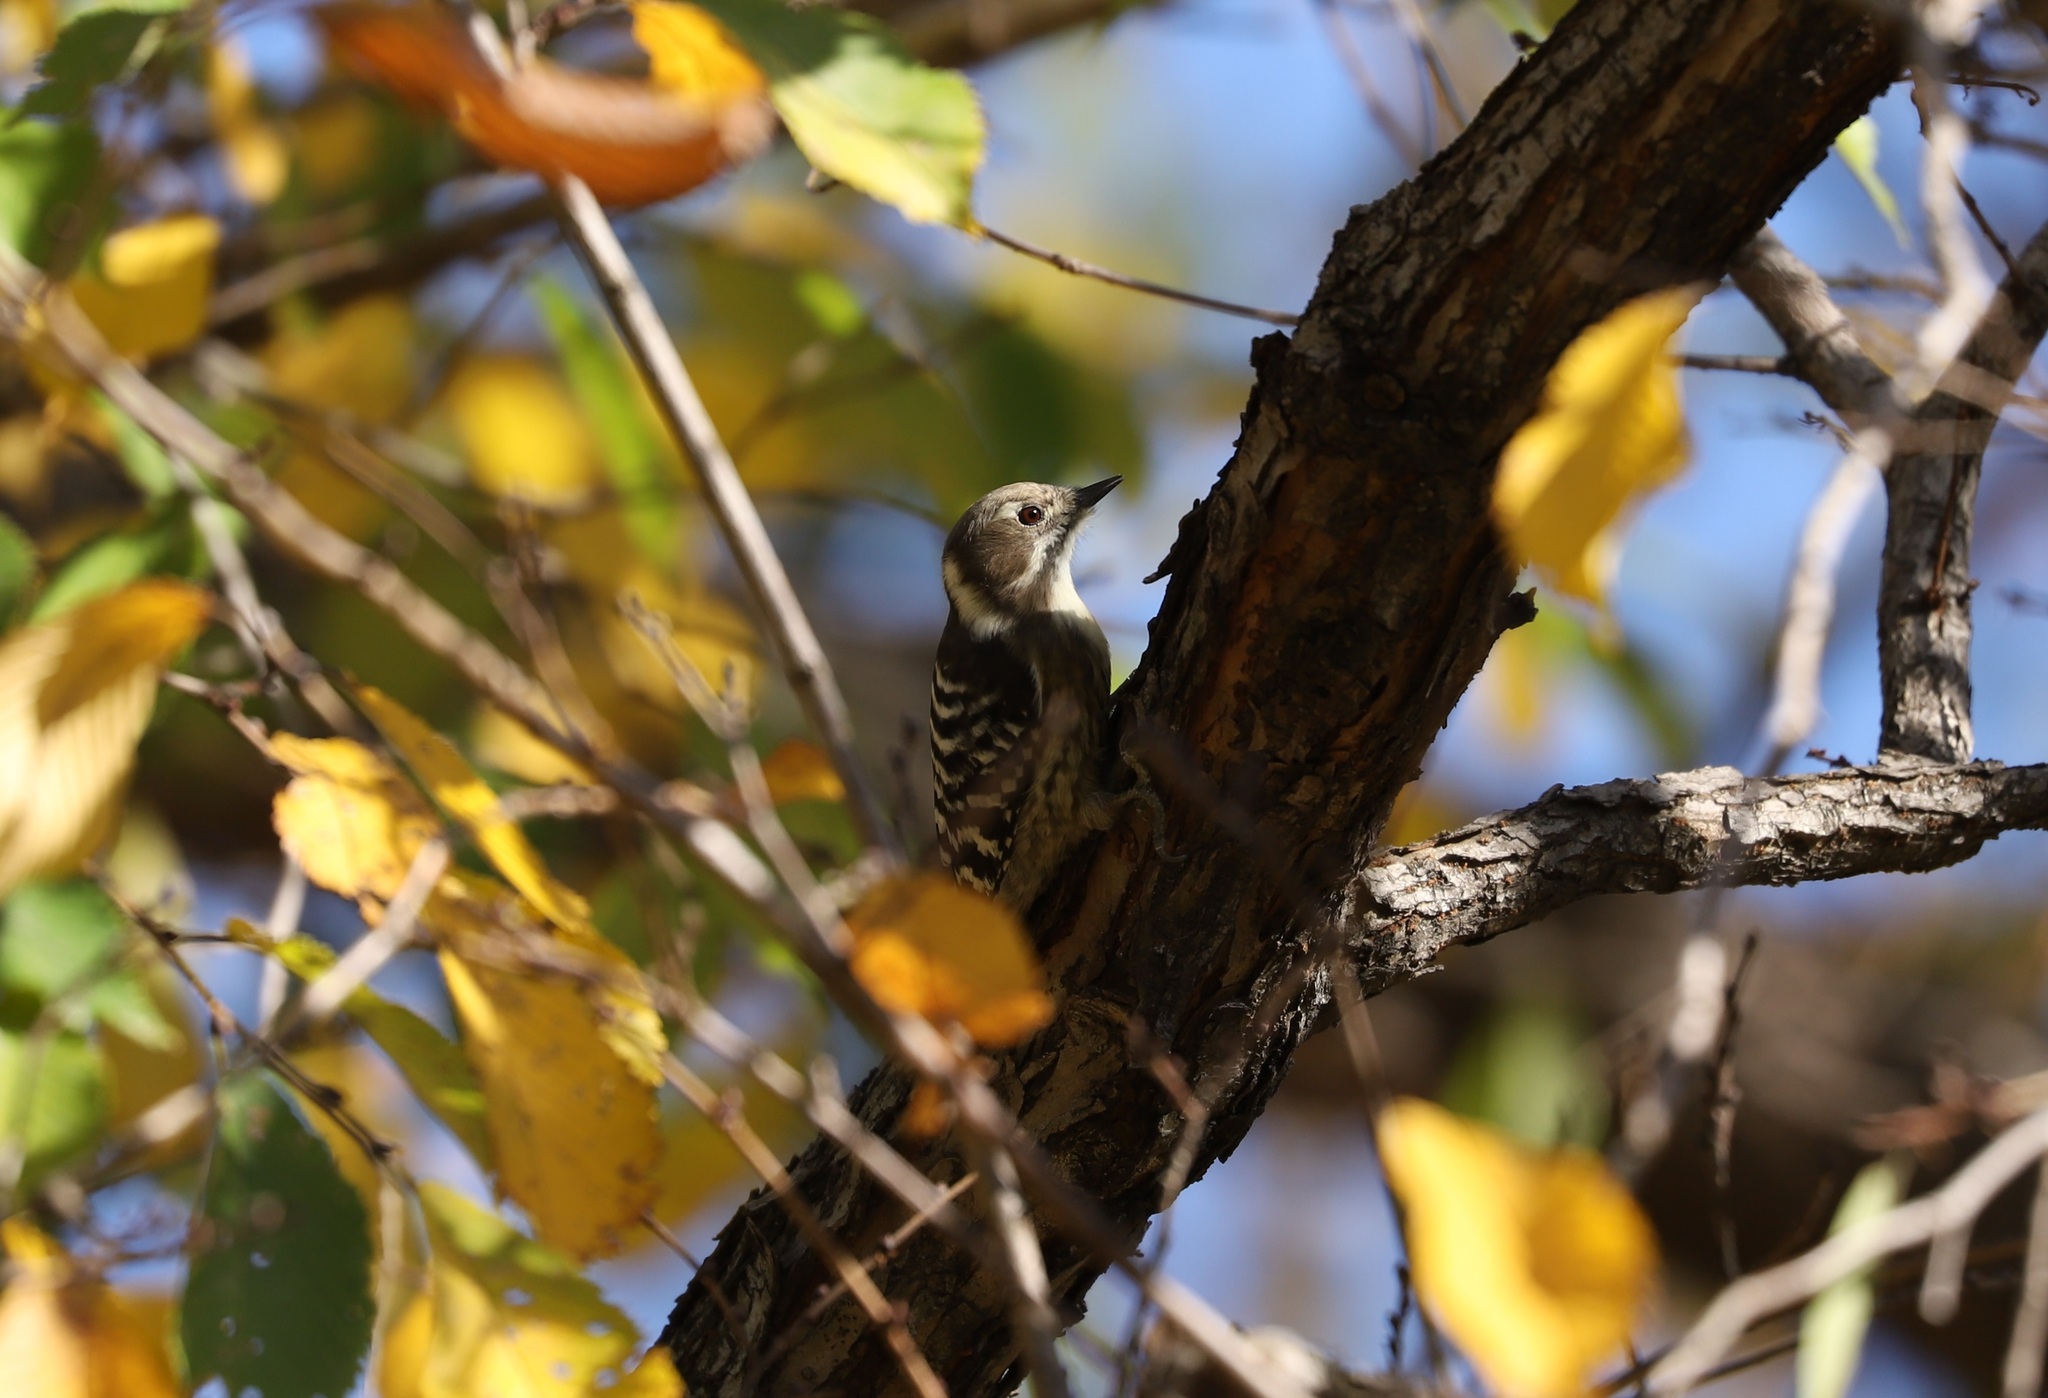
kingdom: Animalia
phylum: Chordata
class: Aves
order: Piciformes
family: Picidae
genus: Yungipicus
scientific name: Yungipicus kizuki
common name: Japanese pygmy woodpecker
